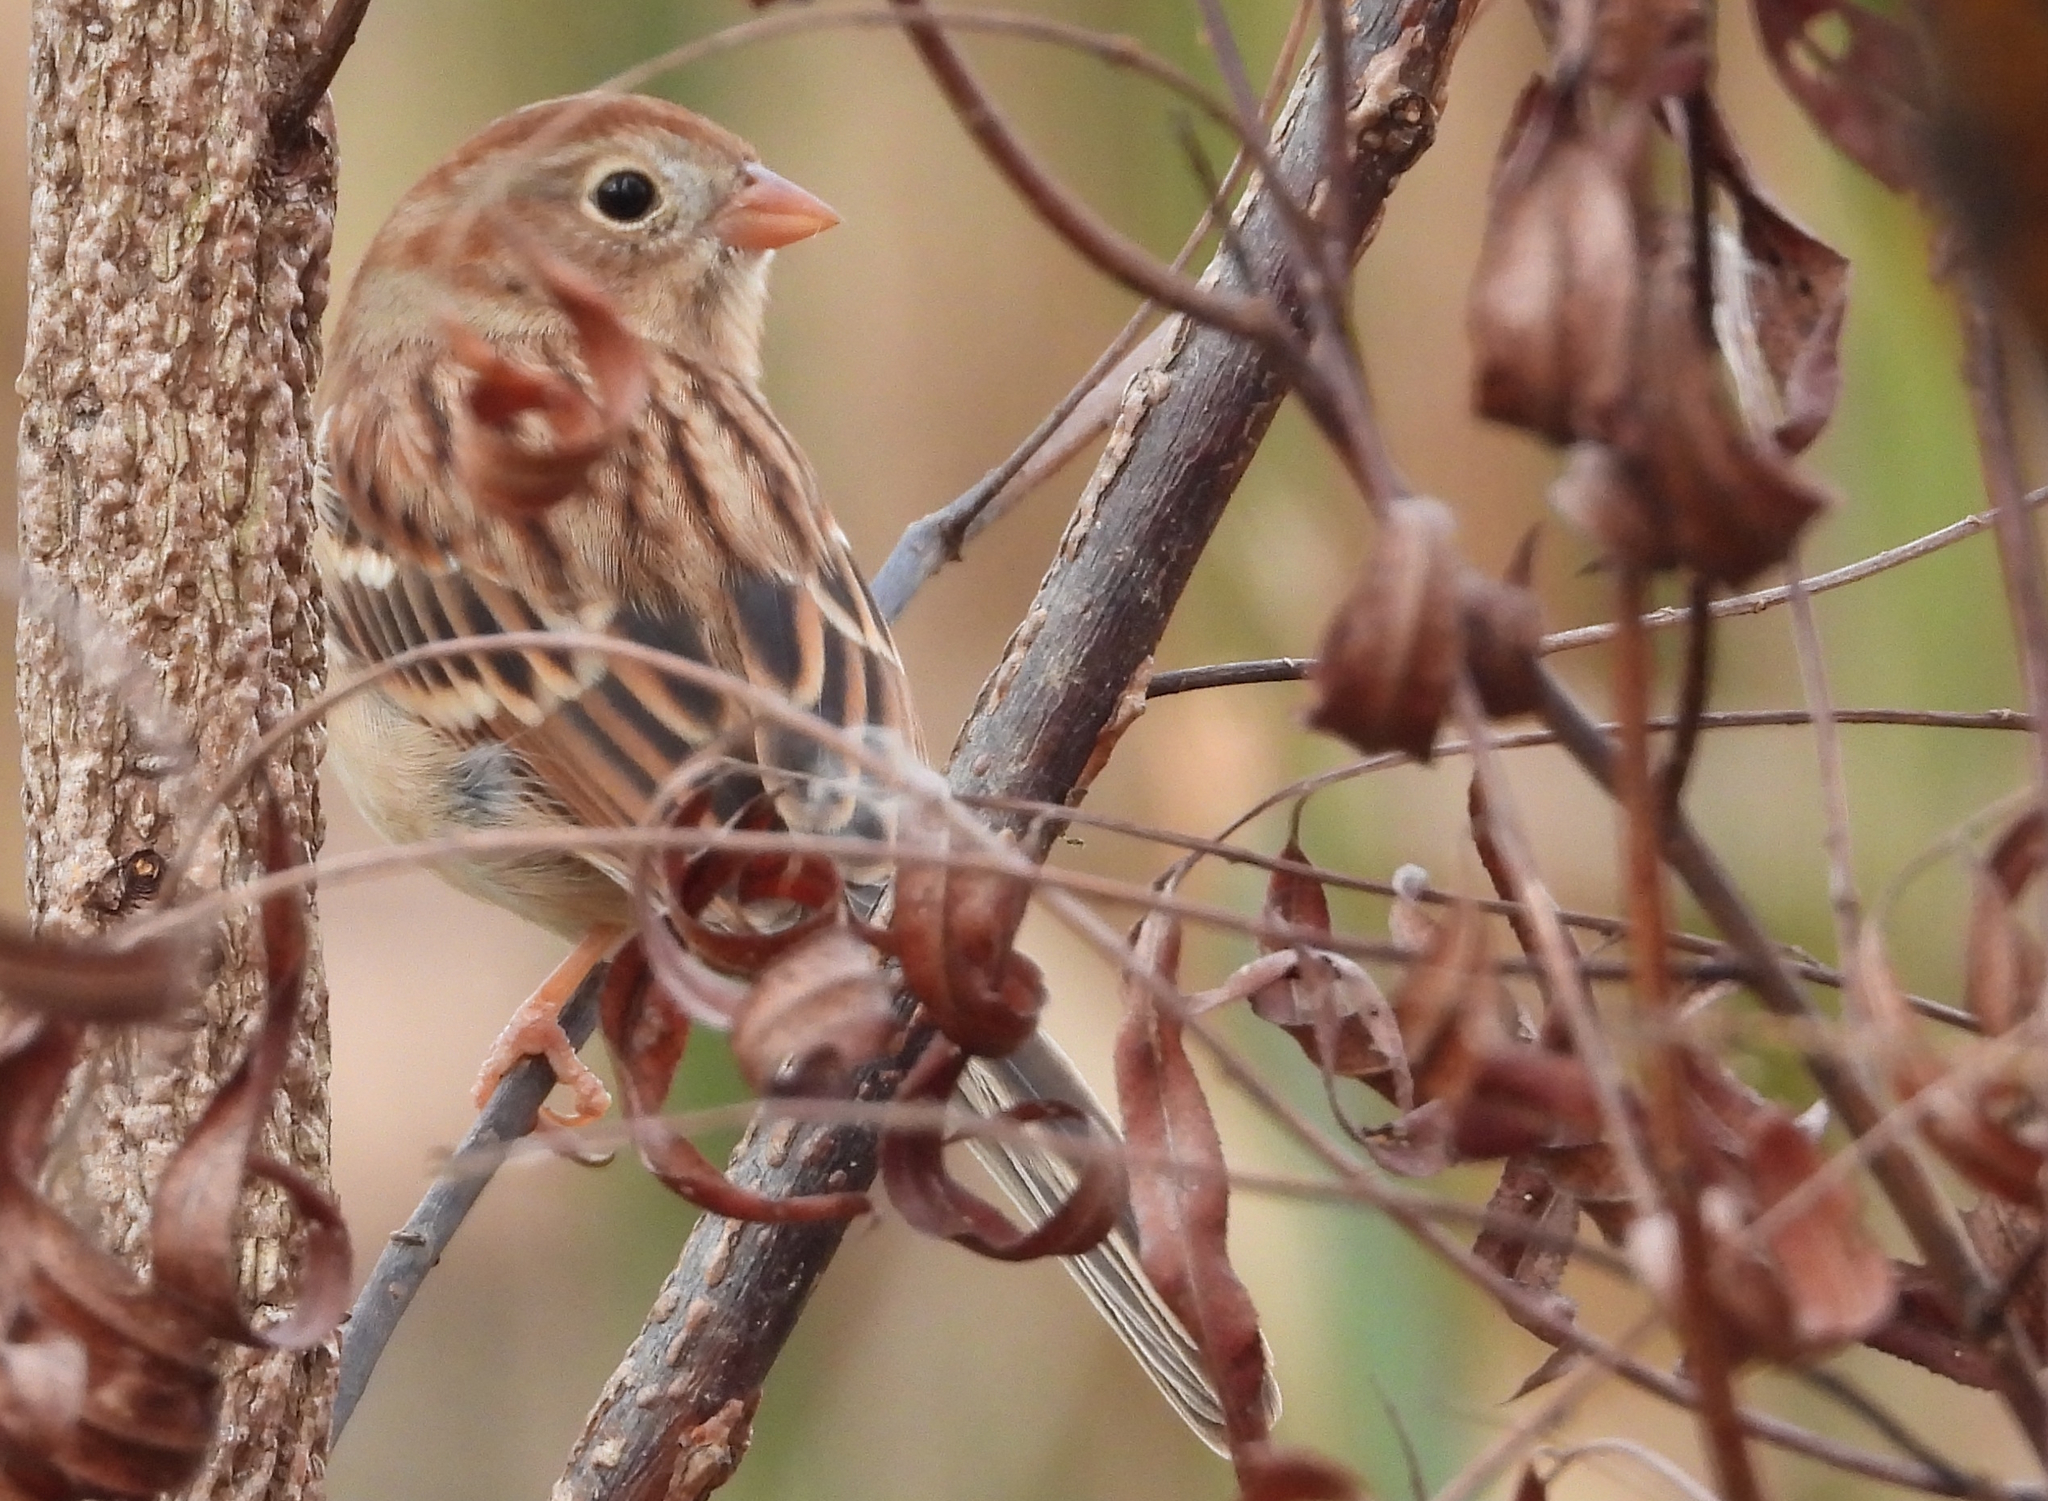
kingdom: Animalia
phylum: Chordata
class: Aves
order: Passeriformes
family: Passerellidae
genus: Spizella
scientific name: Spizella pusilla
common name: Field sparrow
